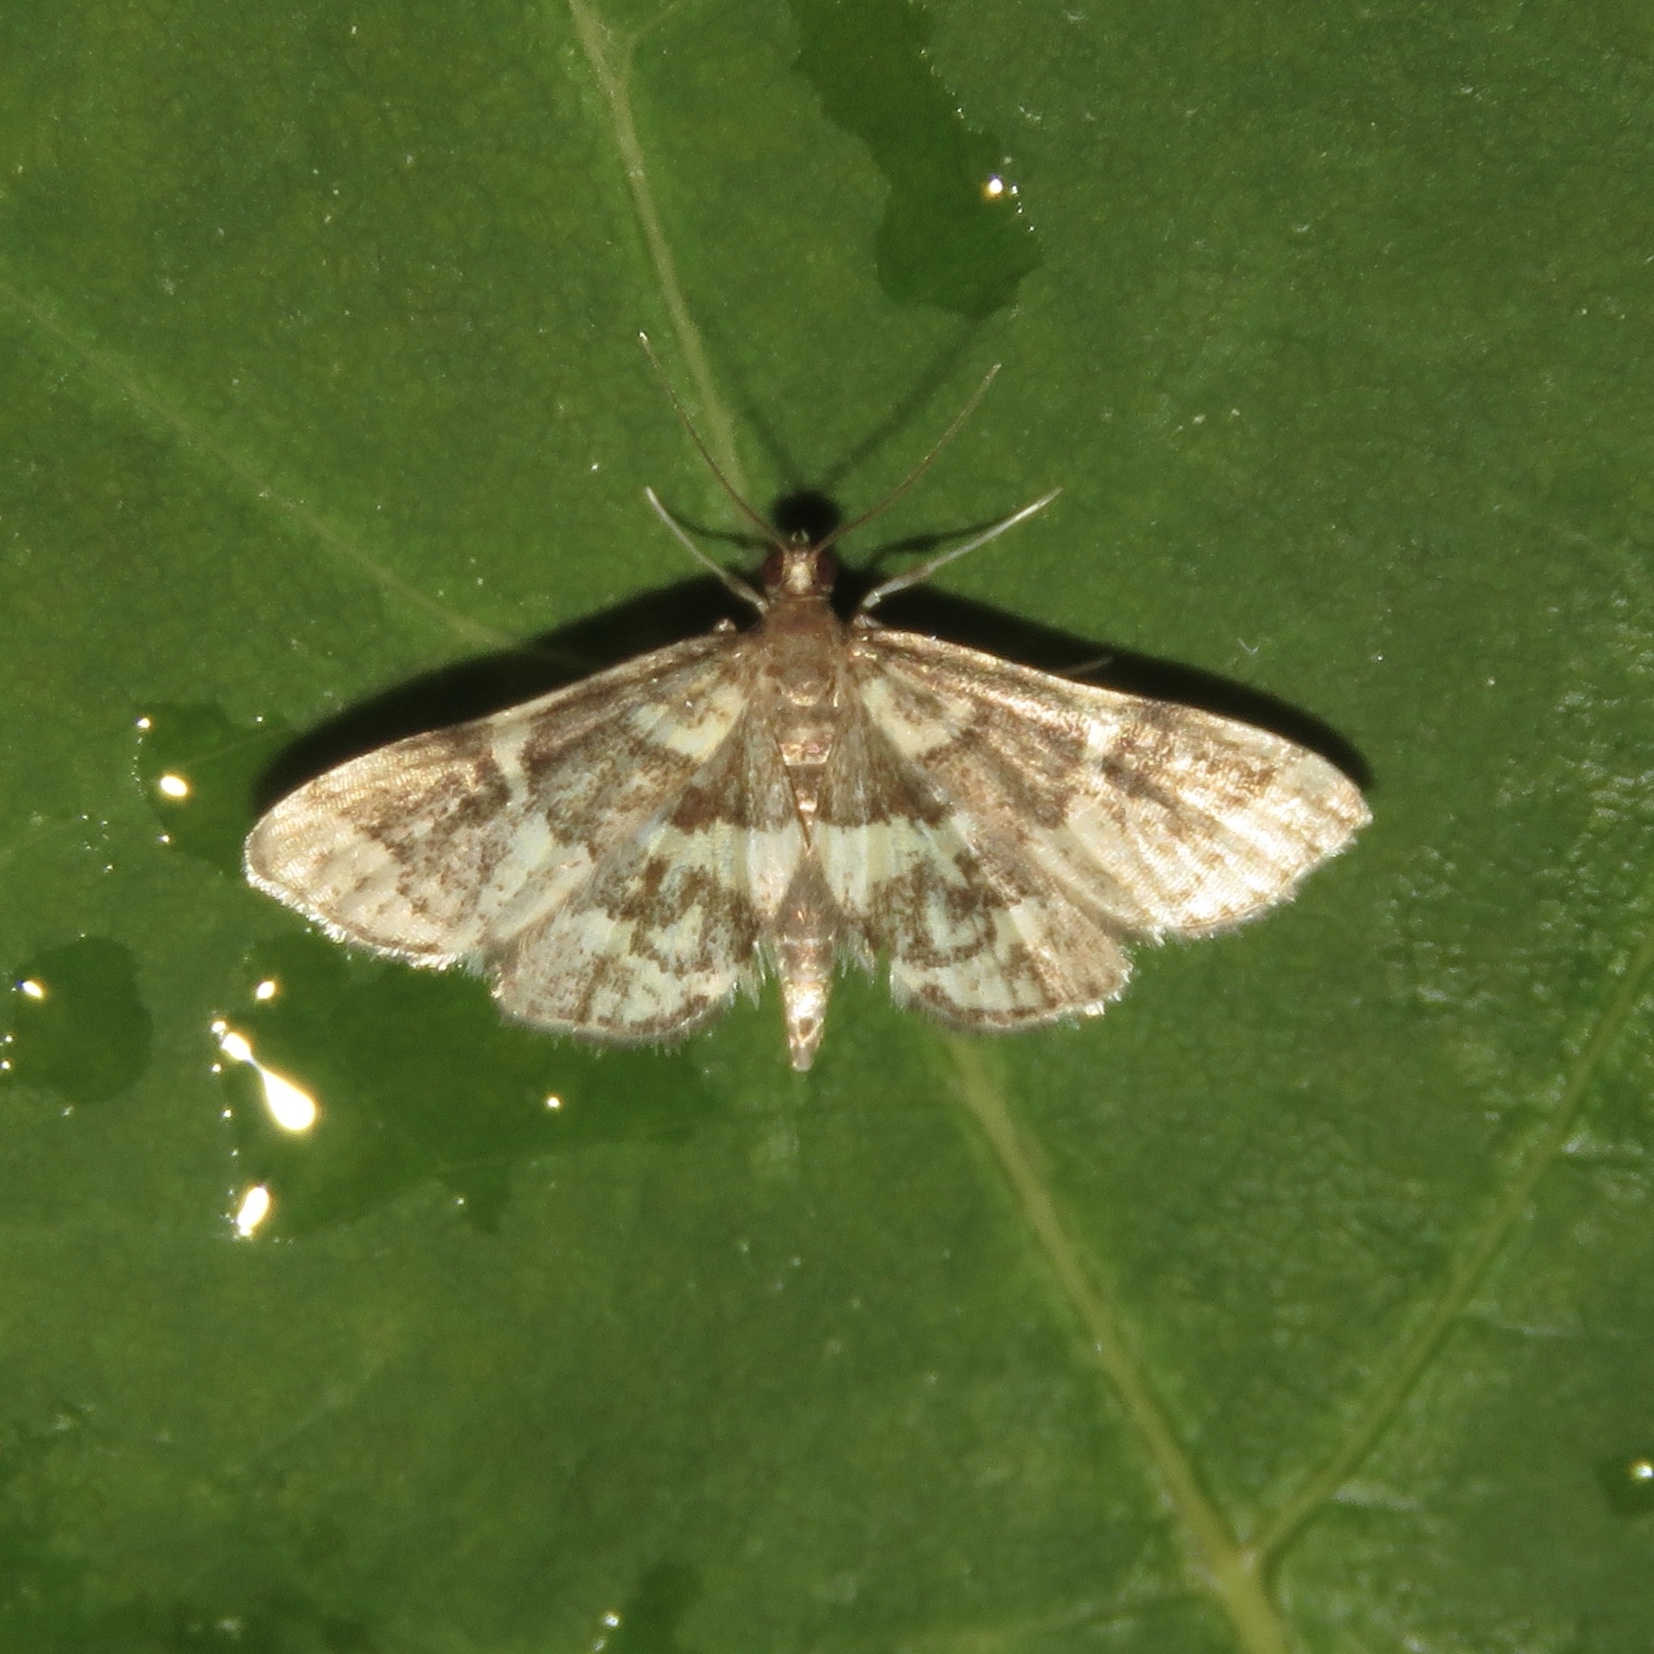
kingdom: Animalia
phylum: Arthropoda
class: Insecta
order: Lepidoptera
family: Crambidae
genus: Anageshna
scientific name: Anageshna primordialis
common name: Yellow-spotted webworm moth
